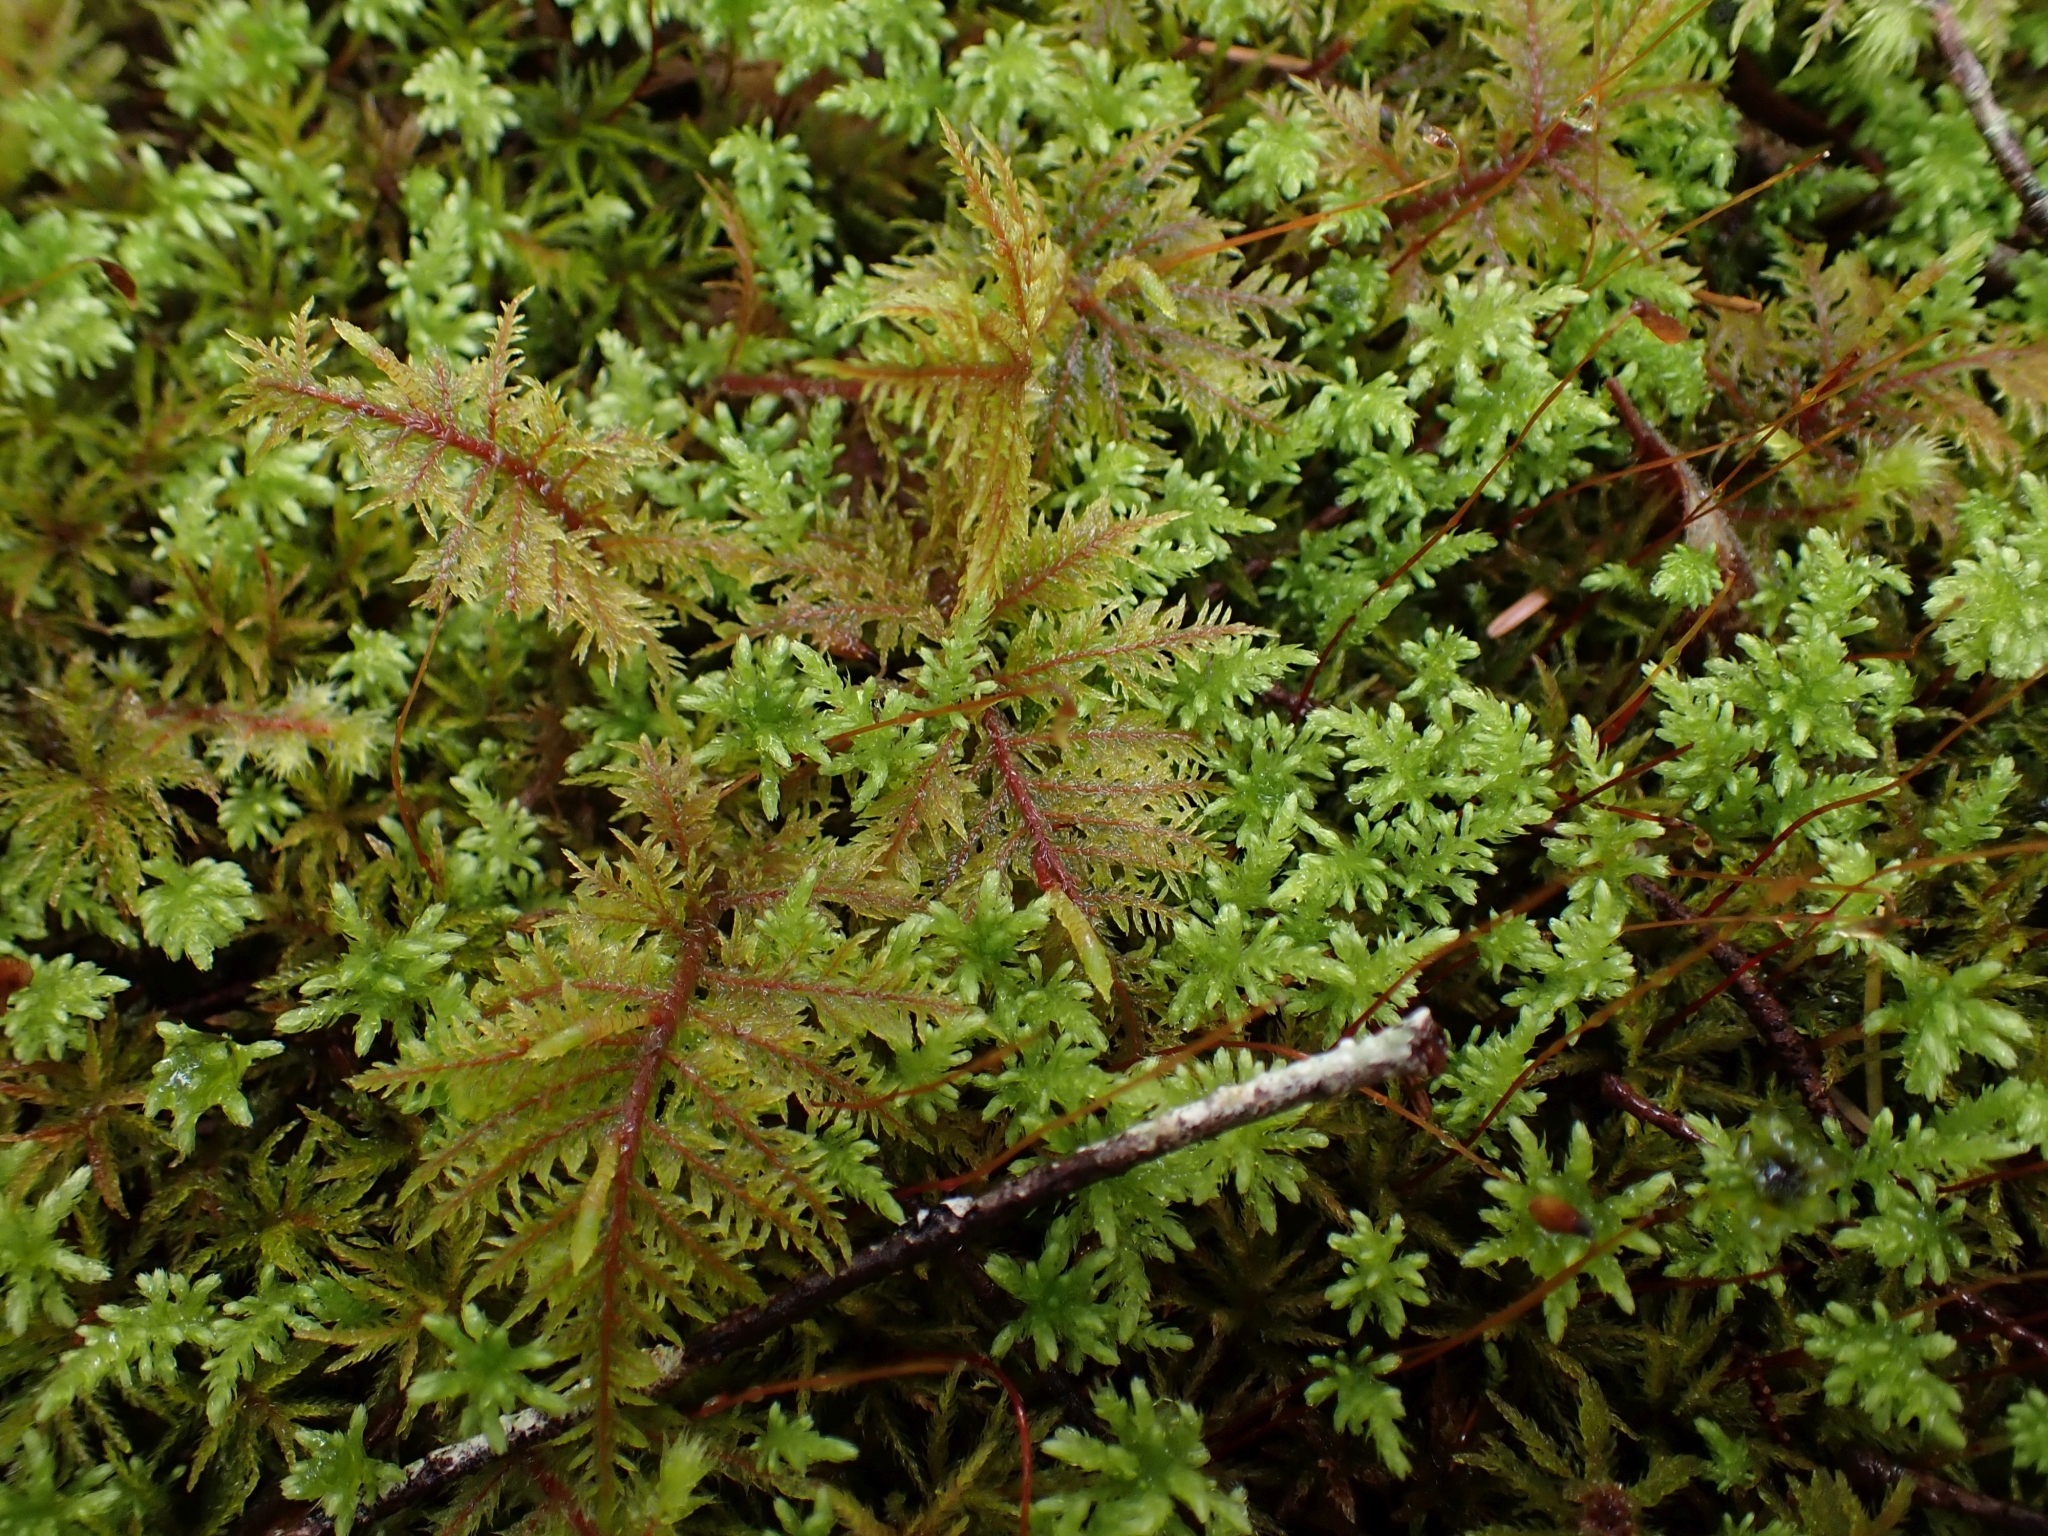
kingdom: Plantae
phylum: Bryophyta
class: Bryopsida
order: Hypnales
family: Hylocomiaceae
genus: Hylocomium
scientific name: Hylocomium splendens
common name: Stairstep moss
